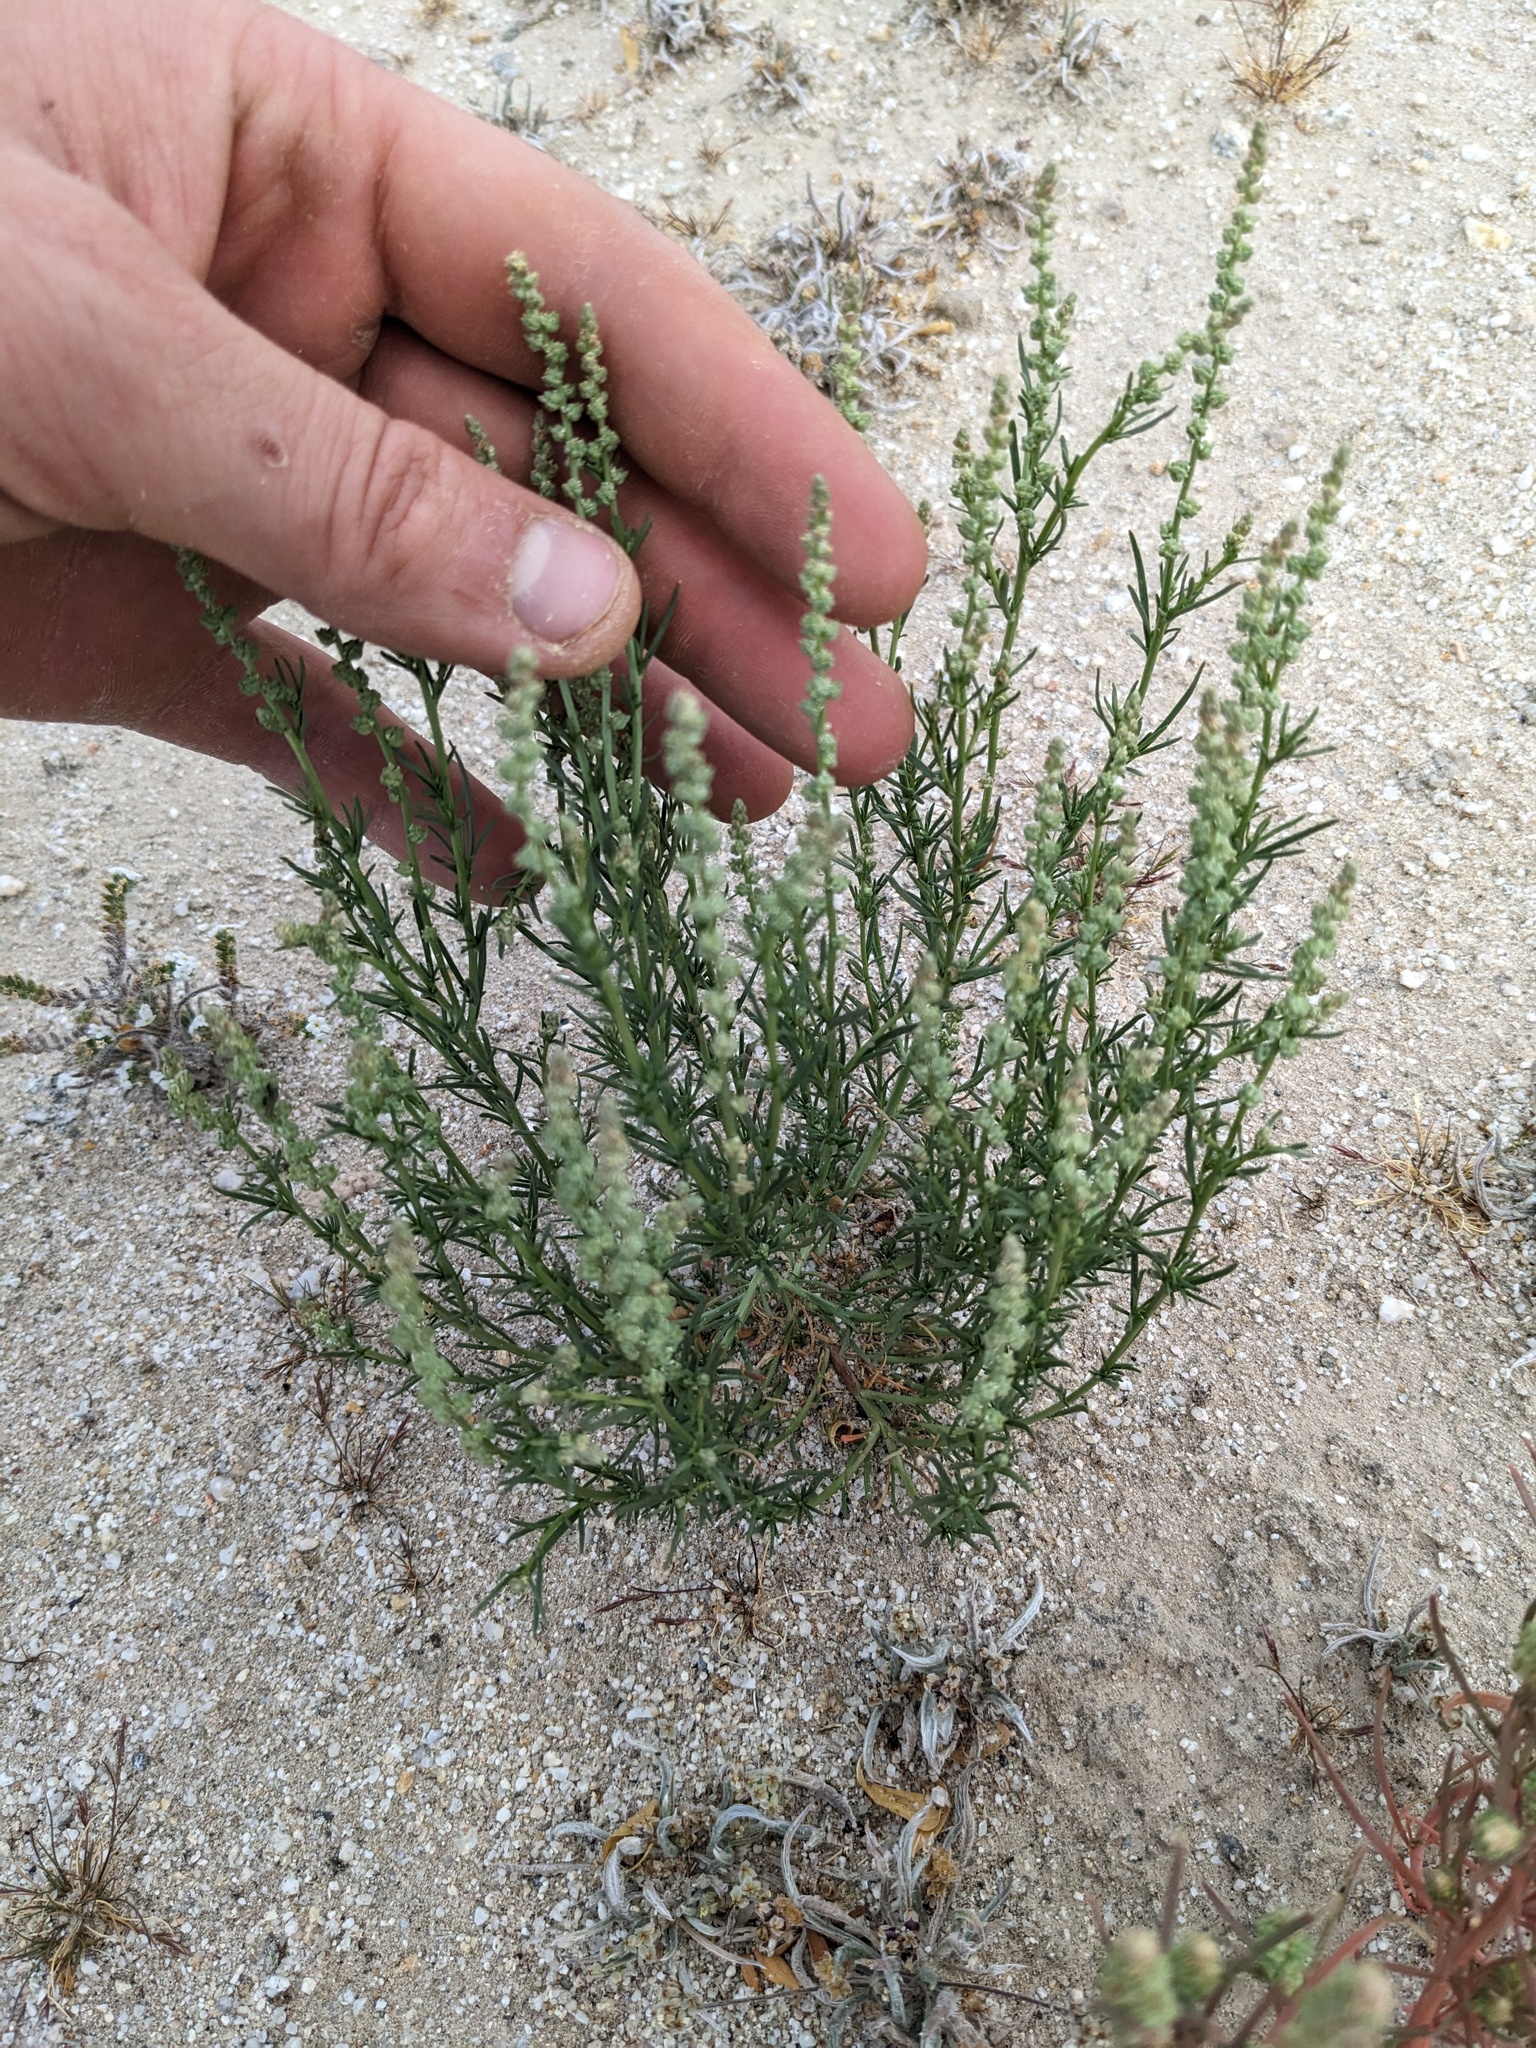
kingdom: Plantae
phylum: Tracheophyta
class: Magnoliopsida
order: Brassicales
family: Resedaceae
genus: Oligomeris
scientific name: Oligomeris linifolia
